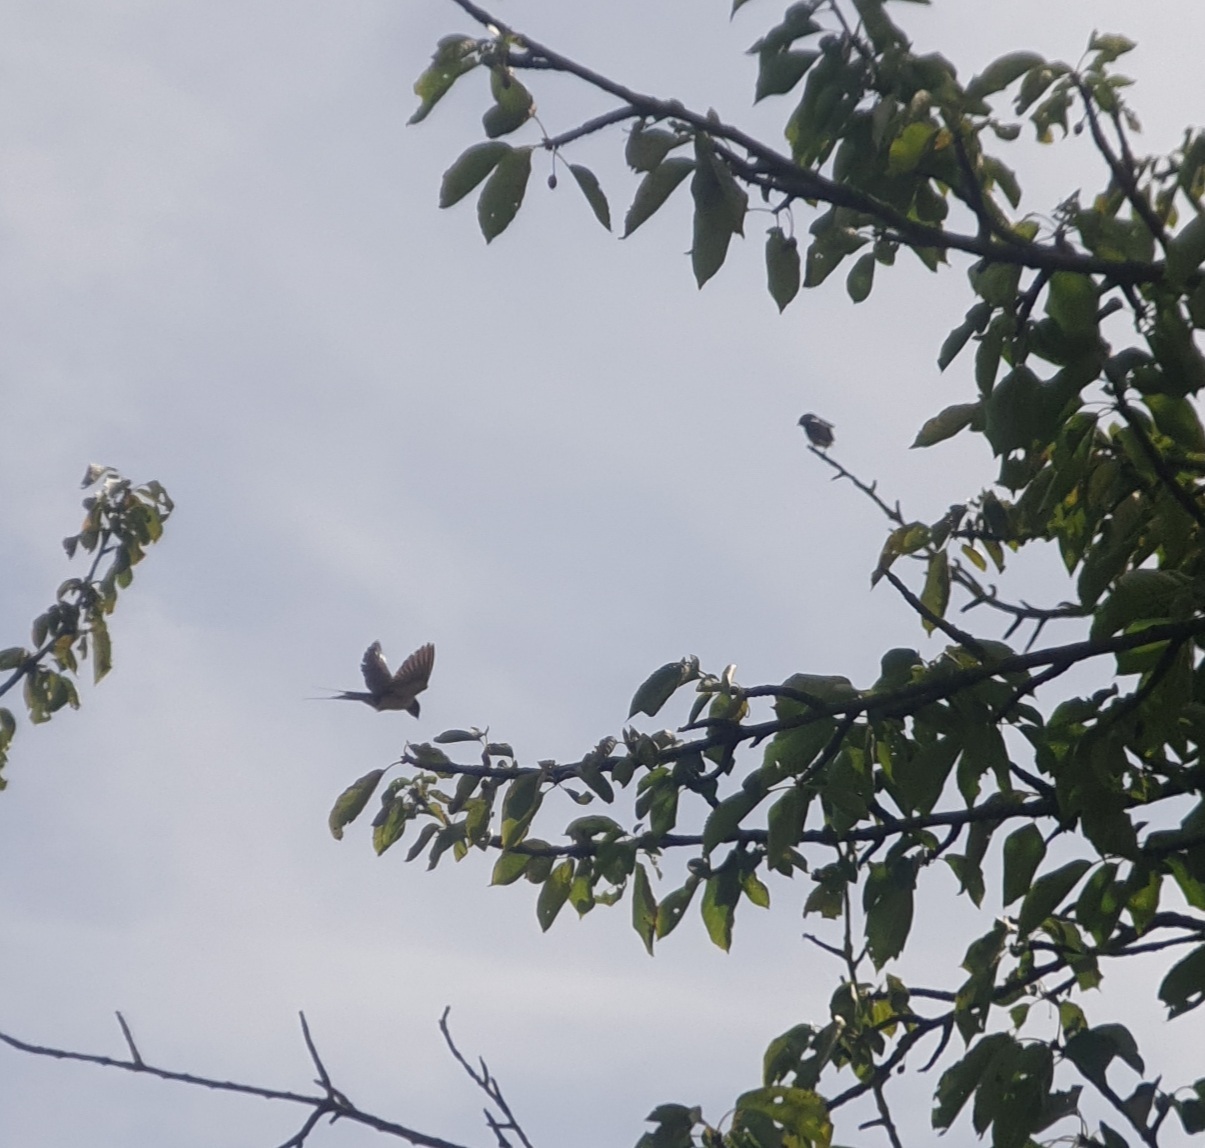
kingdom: Animalia
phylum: Chordata
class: Aves
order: Passeriformes
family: Hirundinidae
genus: Hirundo
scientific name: Hirundo rustica
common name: Barn swallow
